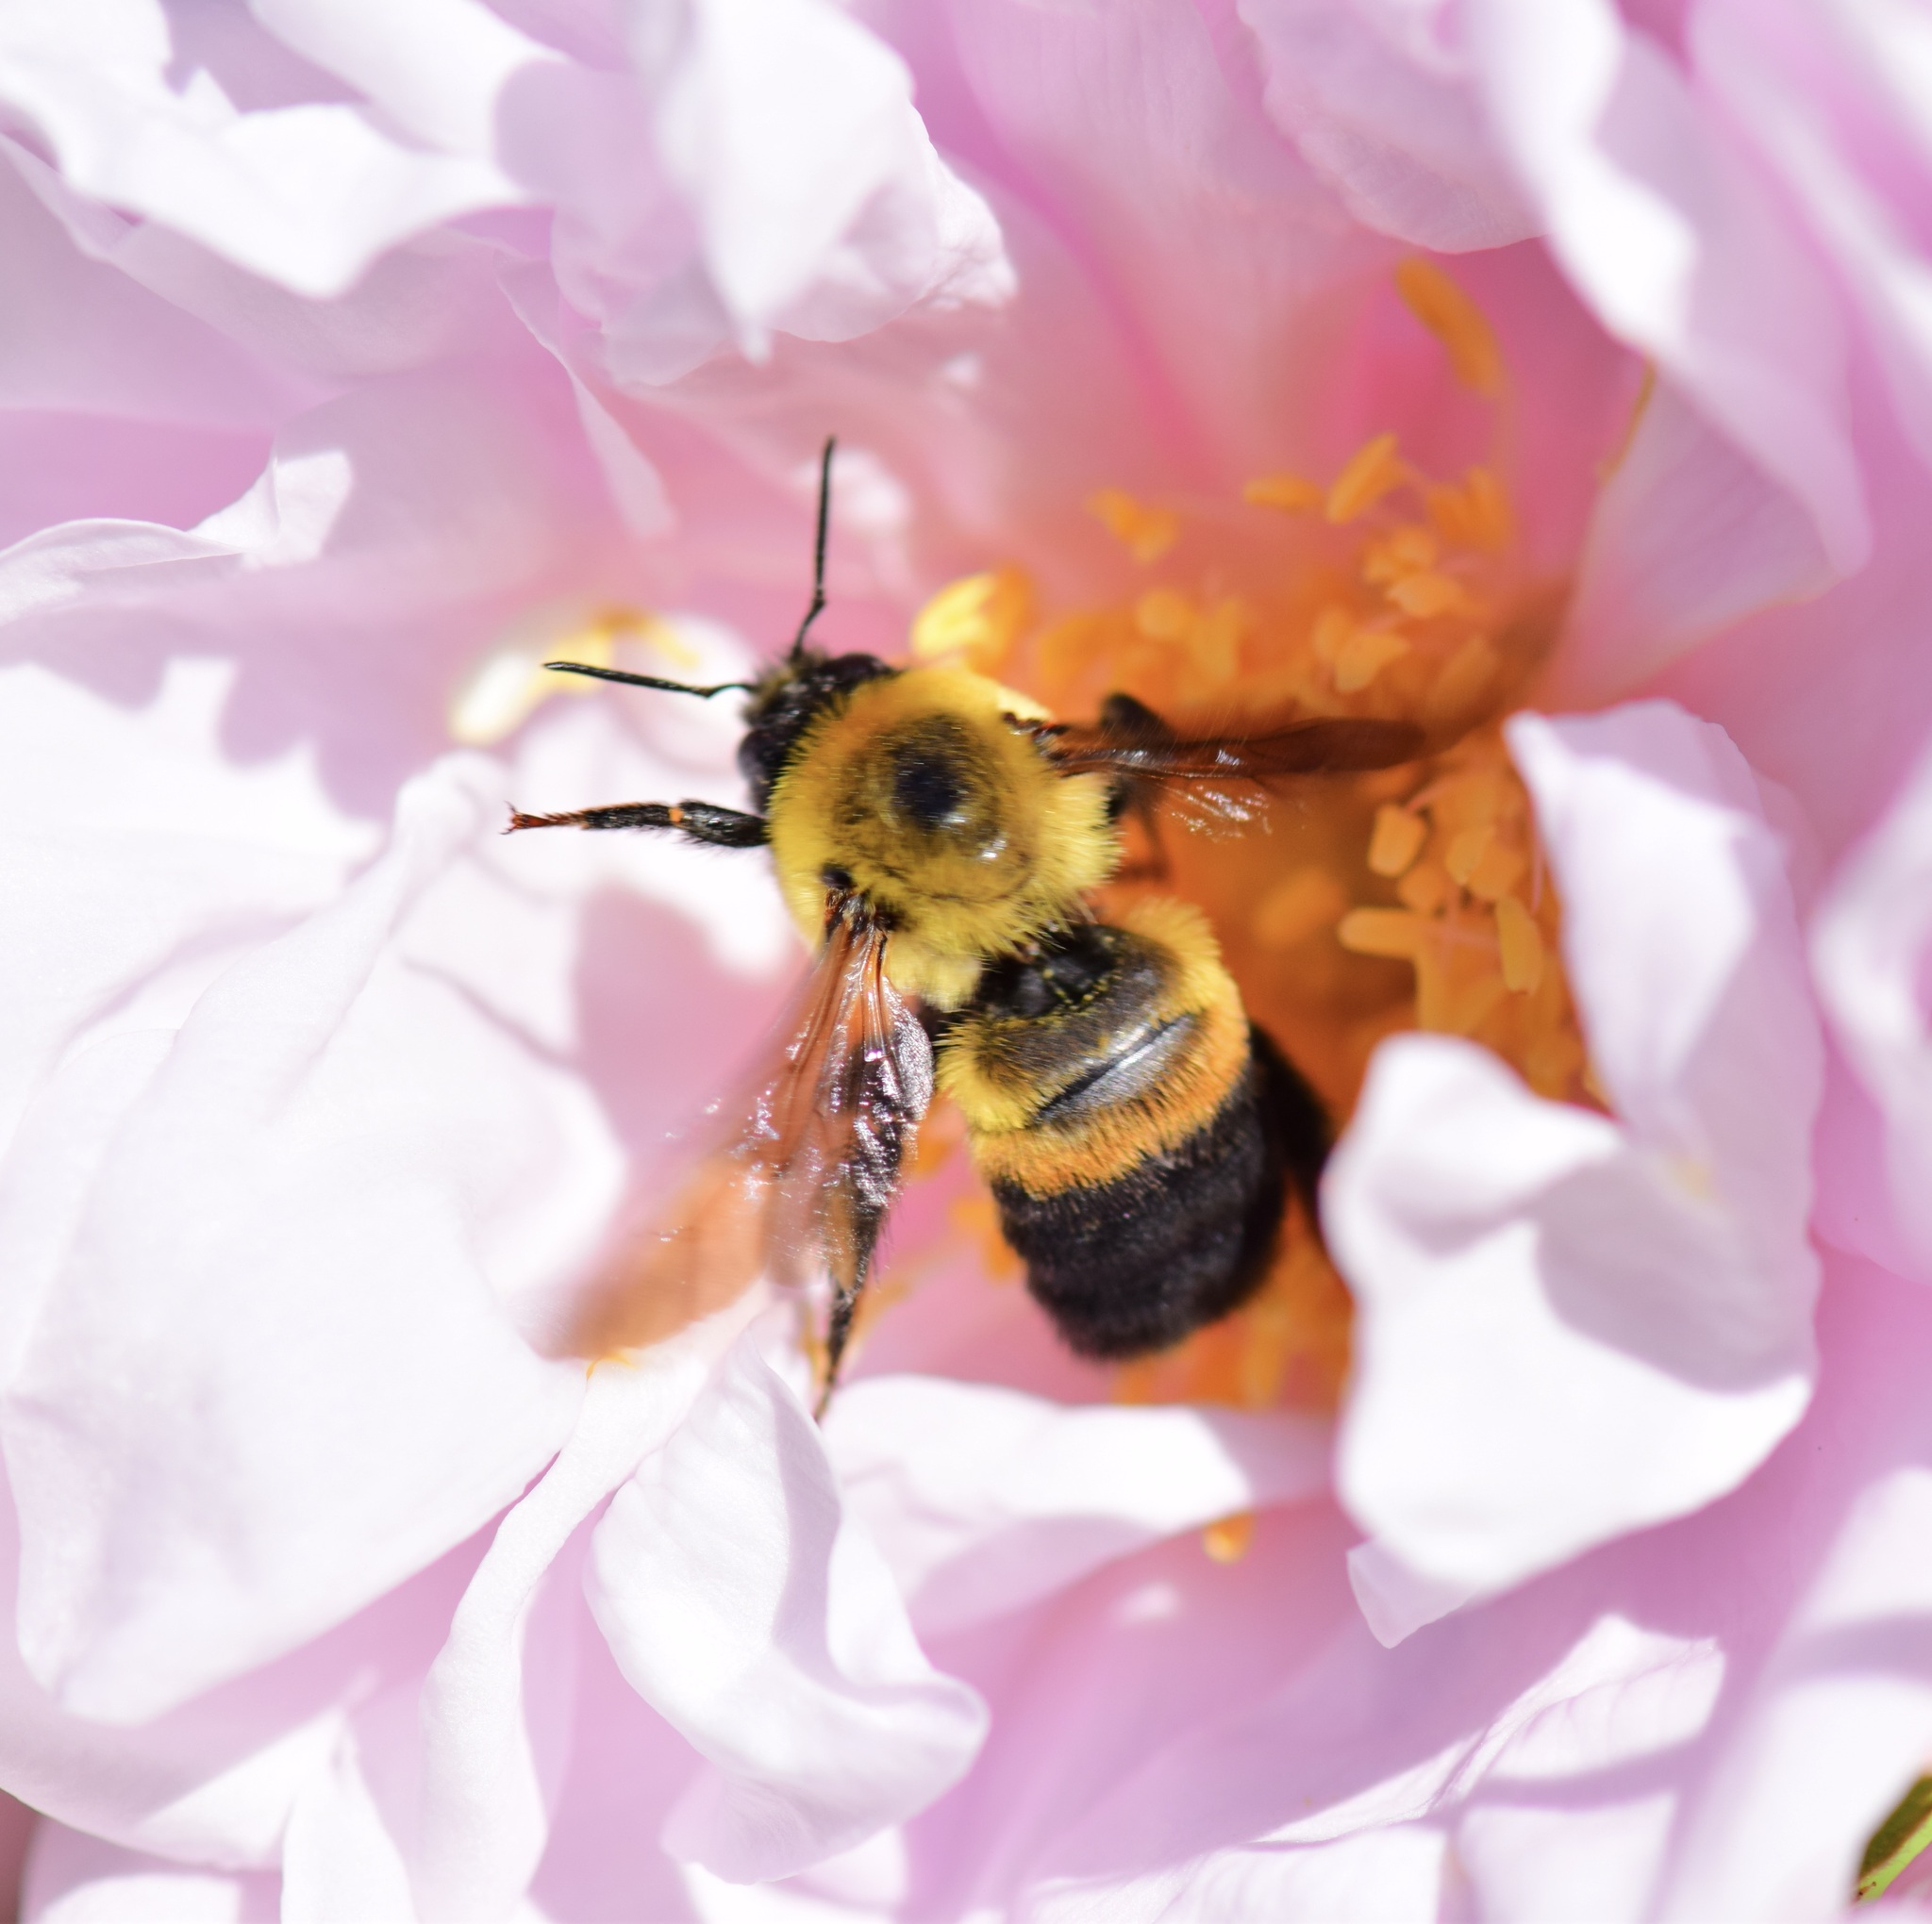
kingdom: Animalia
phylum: Arthropoda
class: Insecta
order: Hymenoptera
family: Apidae
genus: Bombus
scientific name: Bombus griseocollis
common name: Brown-belted bumble bee
